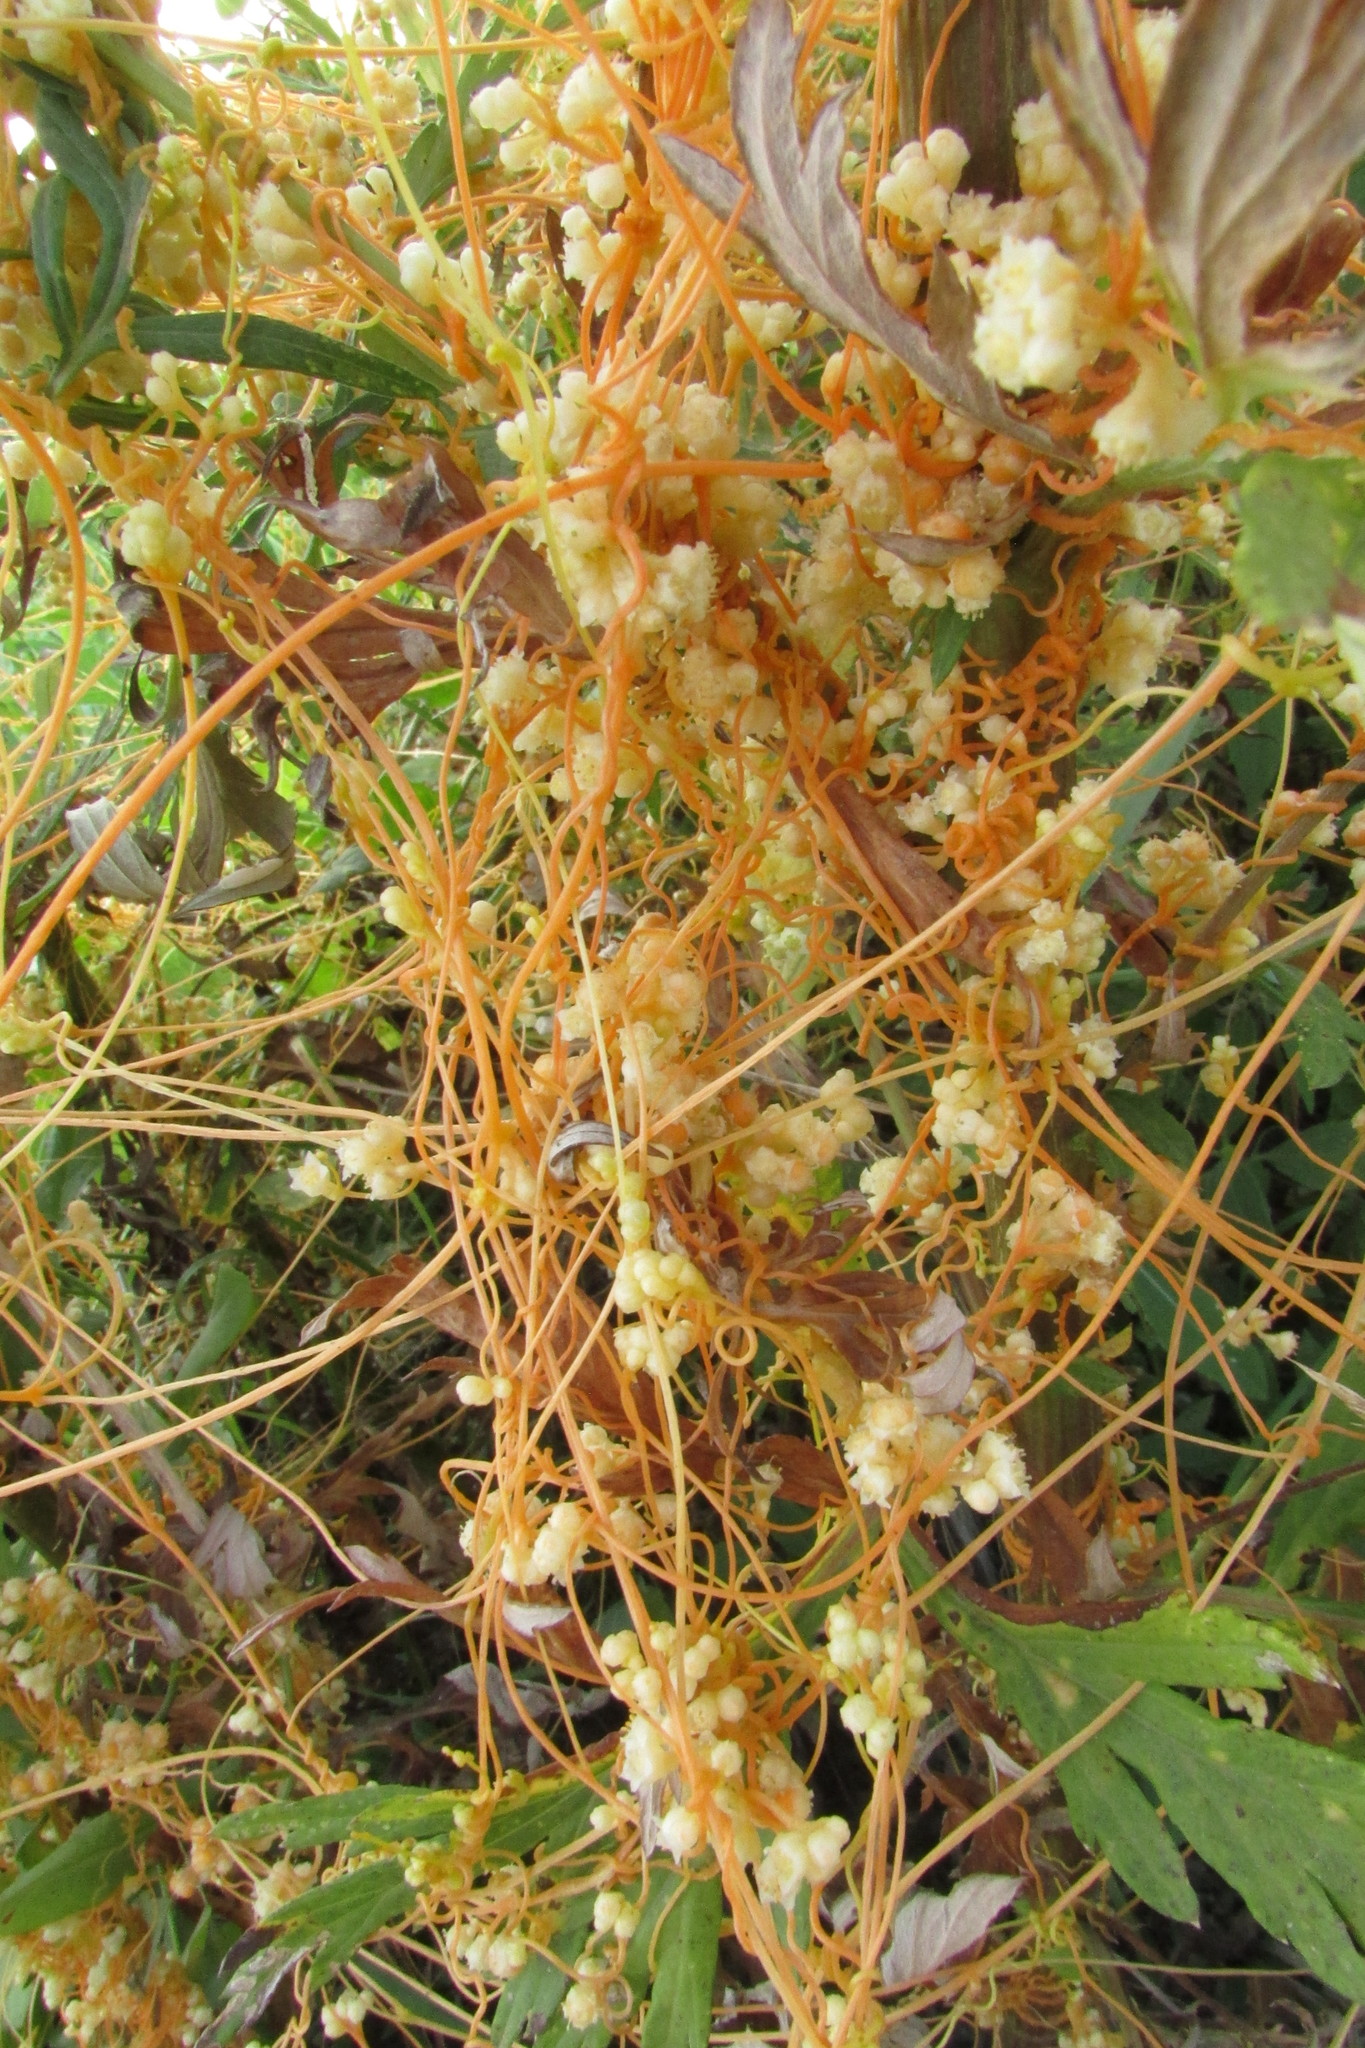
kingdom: Plantae
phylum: Tracheophyta
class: Magnoliopsida
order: Solanales
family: Convolvulaceae
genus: Cuscuta
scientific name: Cuscuta campestris
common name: Yellow dodder
